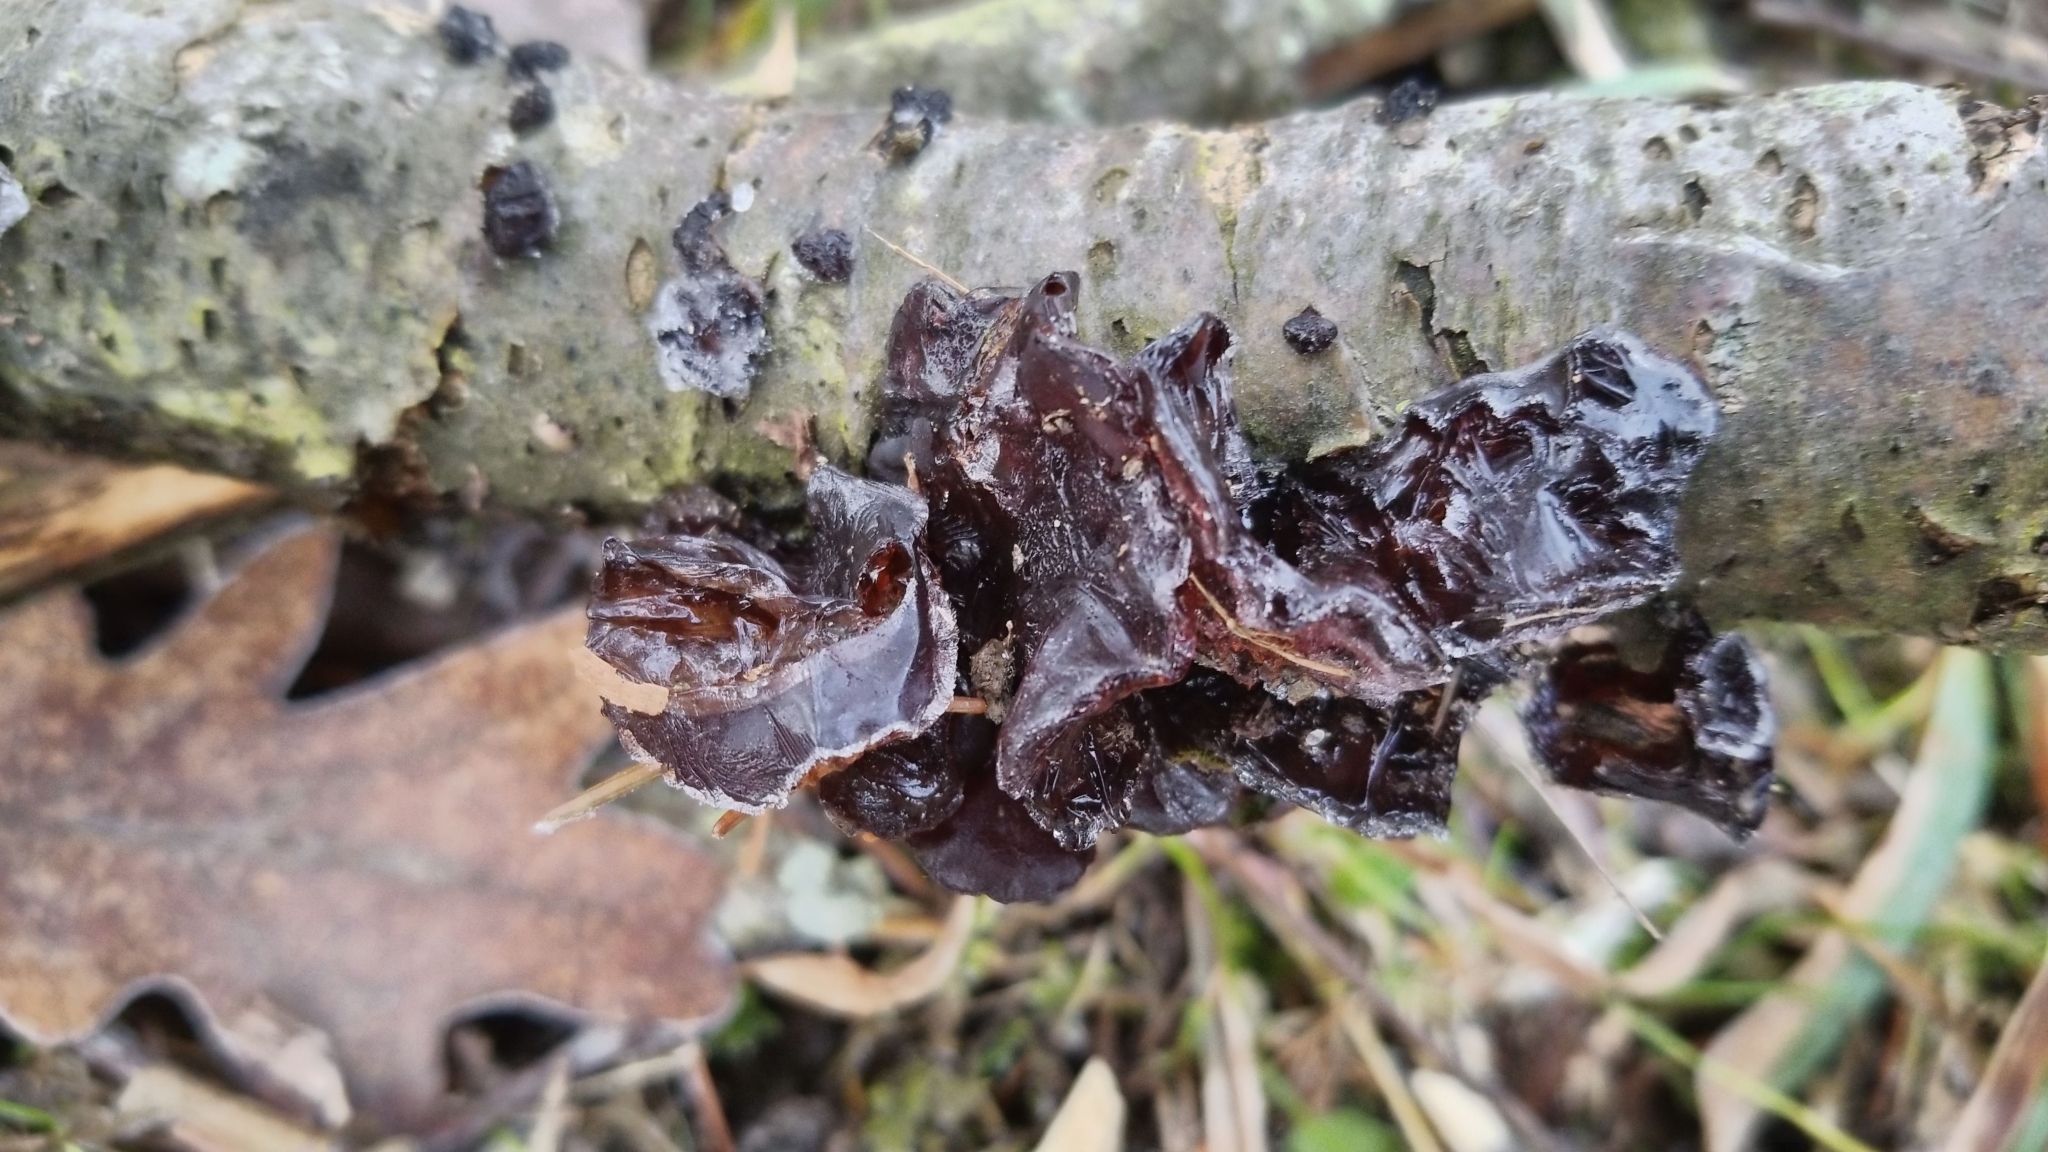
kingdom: Fungi
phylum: Basidiomycota
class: Agaricomycetes
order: Auriculariales
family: Auriculariaceae
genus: Exidia
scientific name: Exidia
